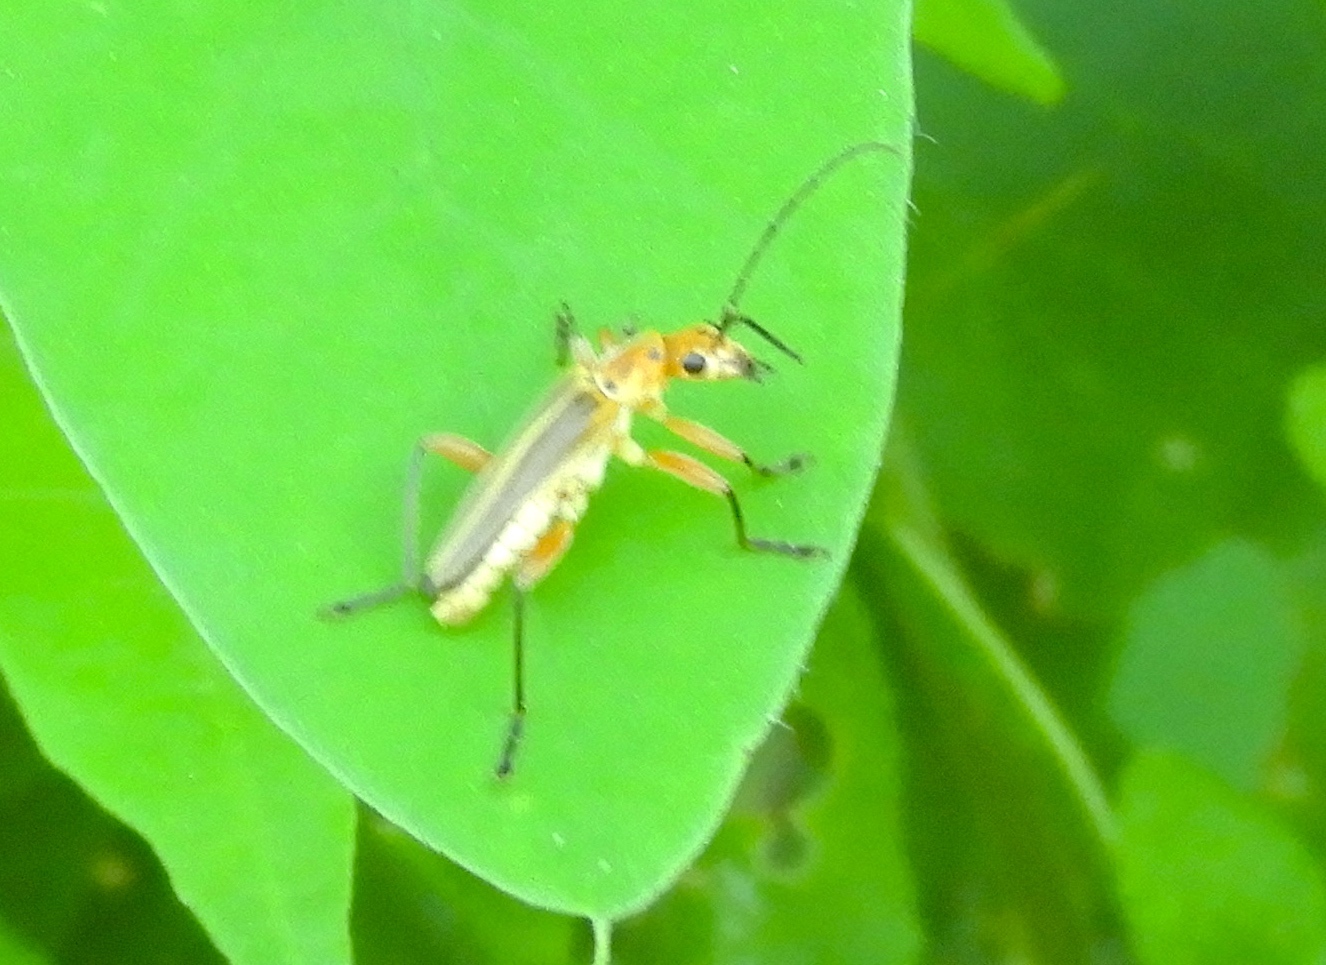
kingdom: Animalia
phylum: Arthropoda
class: Insecta
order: Coleoptera
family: Cantharidae
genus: Chauliognathus
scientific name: Chauliognathus
